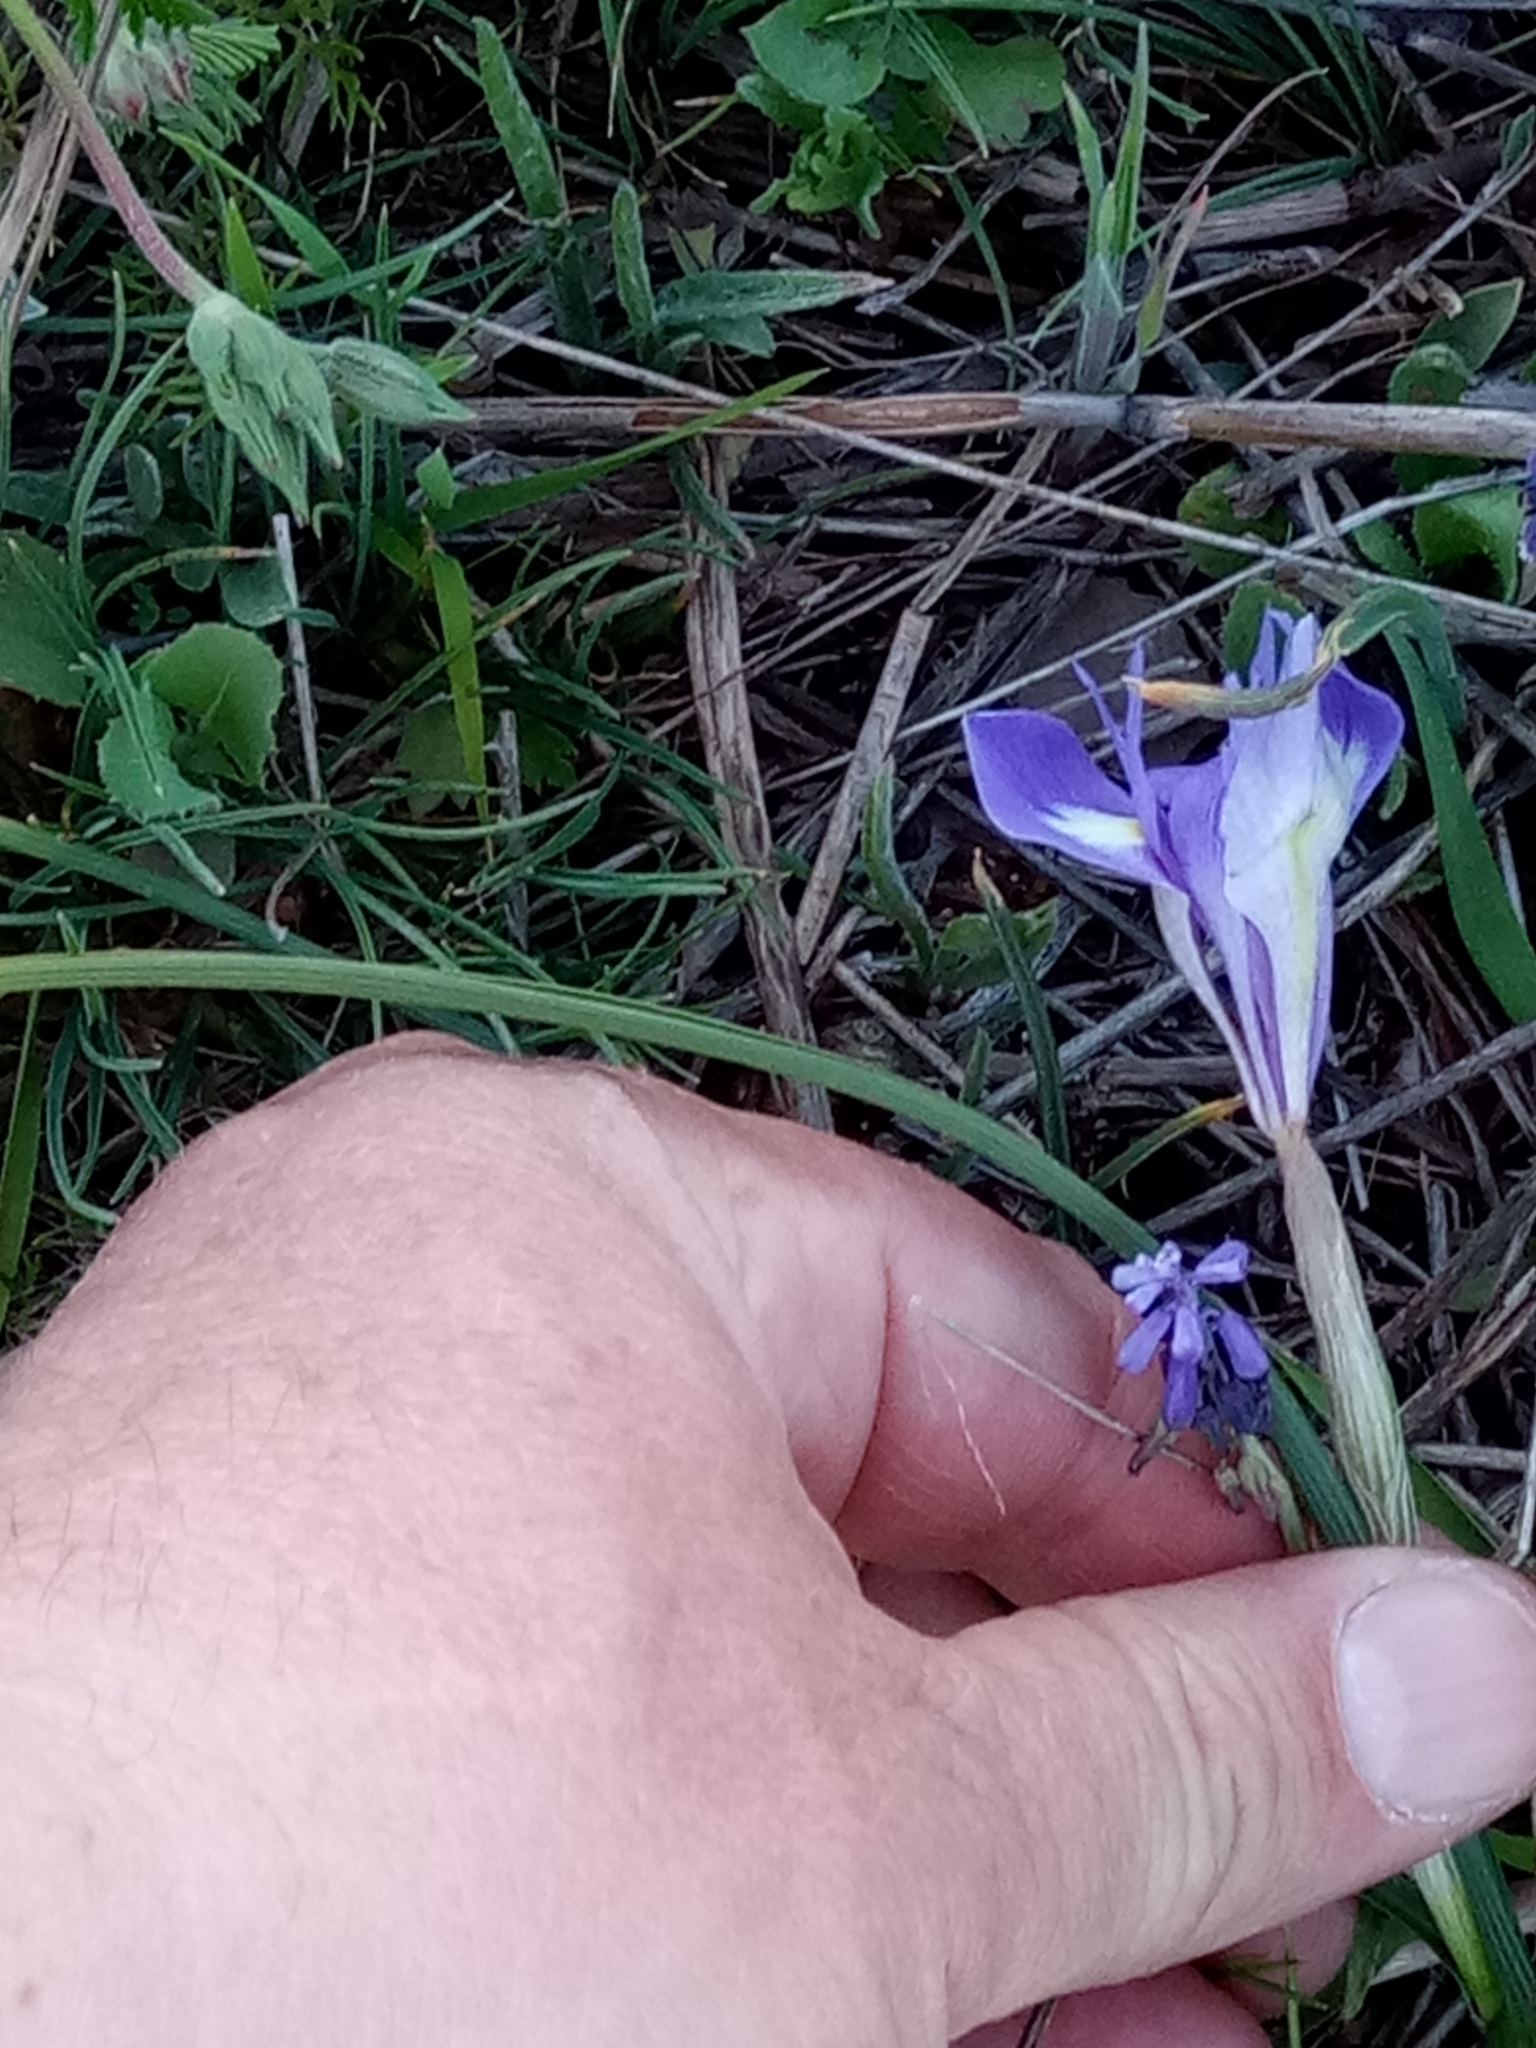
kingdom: Plantae
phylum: Tracheophyta
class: Liliopsida
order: Asparagales
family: Iridaceae
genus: Moraea
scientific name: Moraea sisyrinchium
